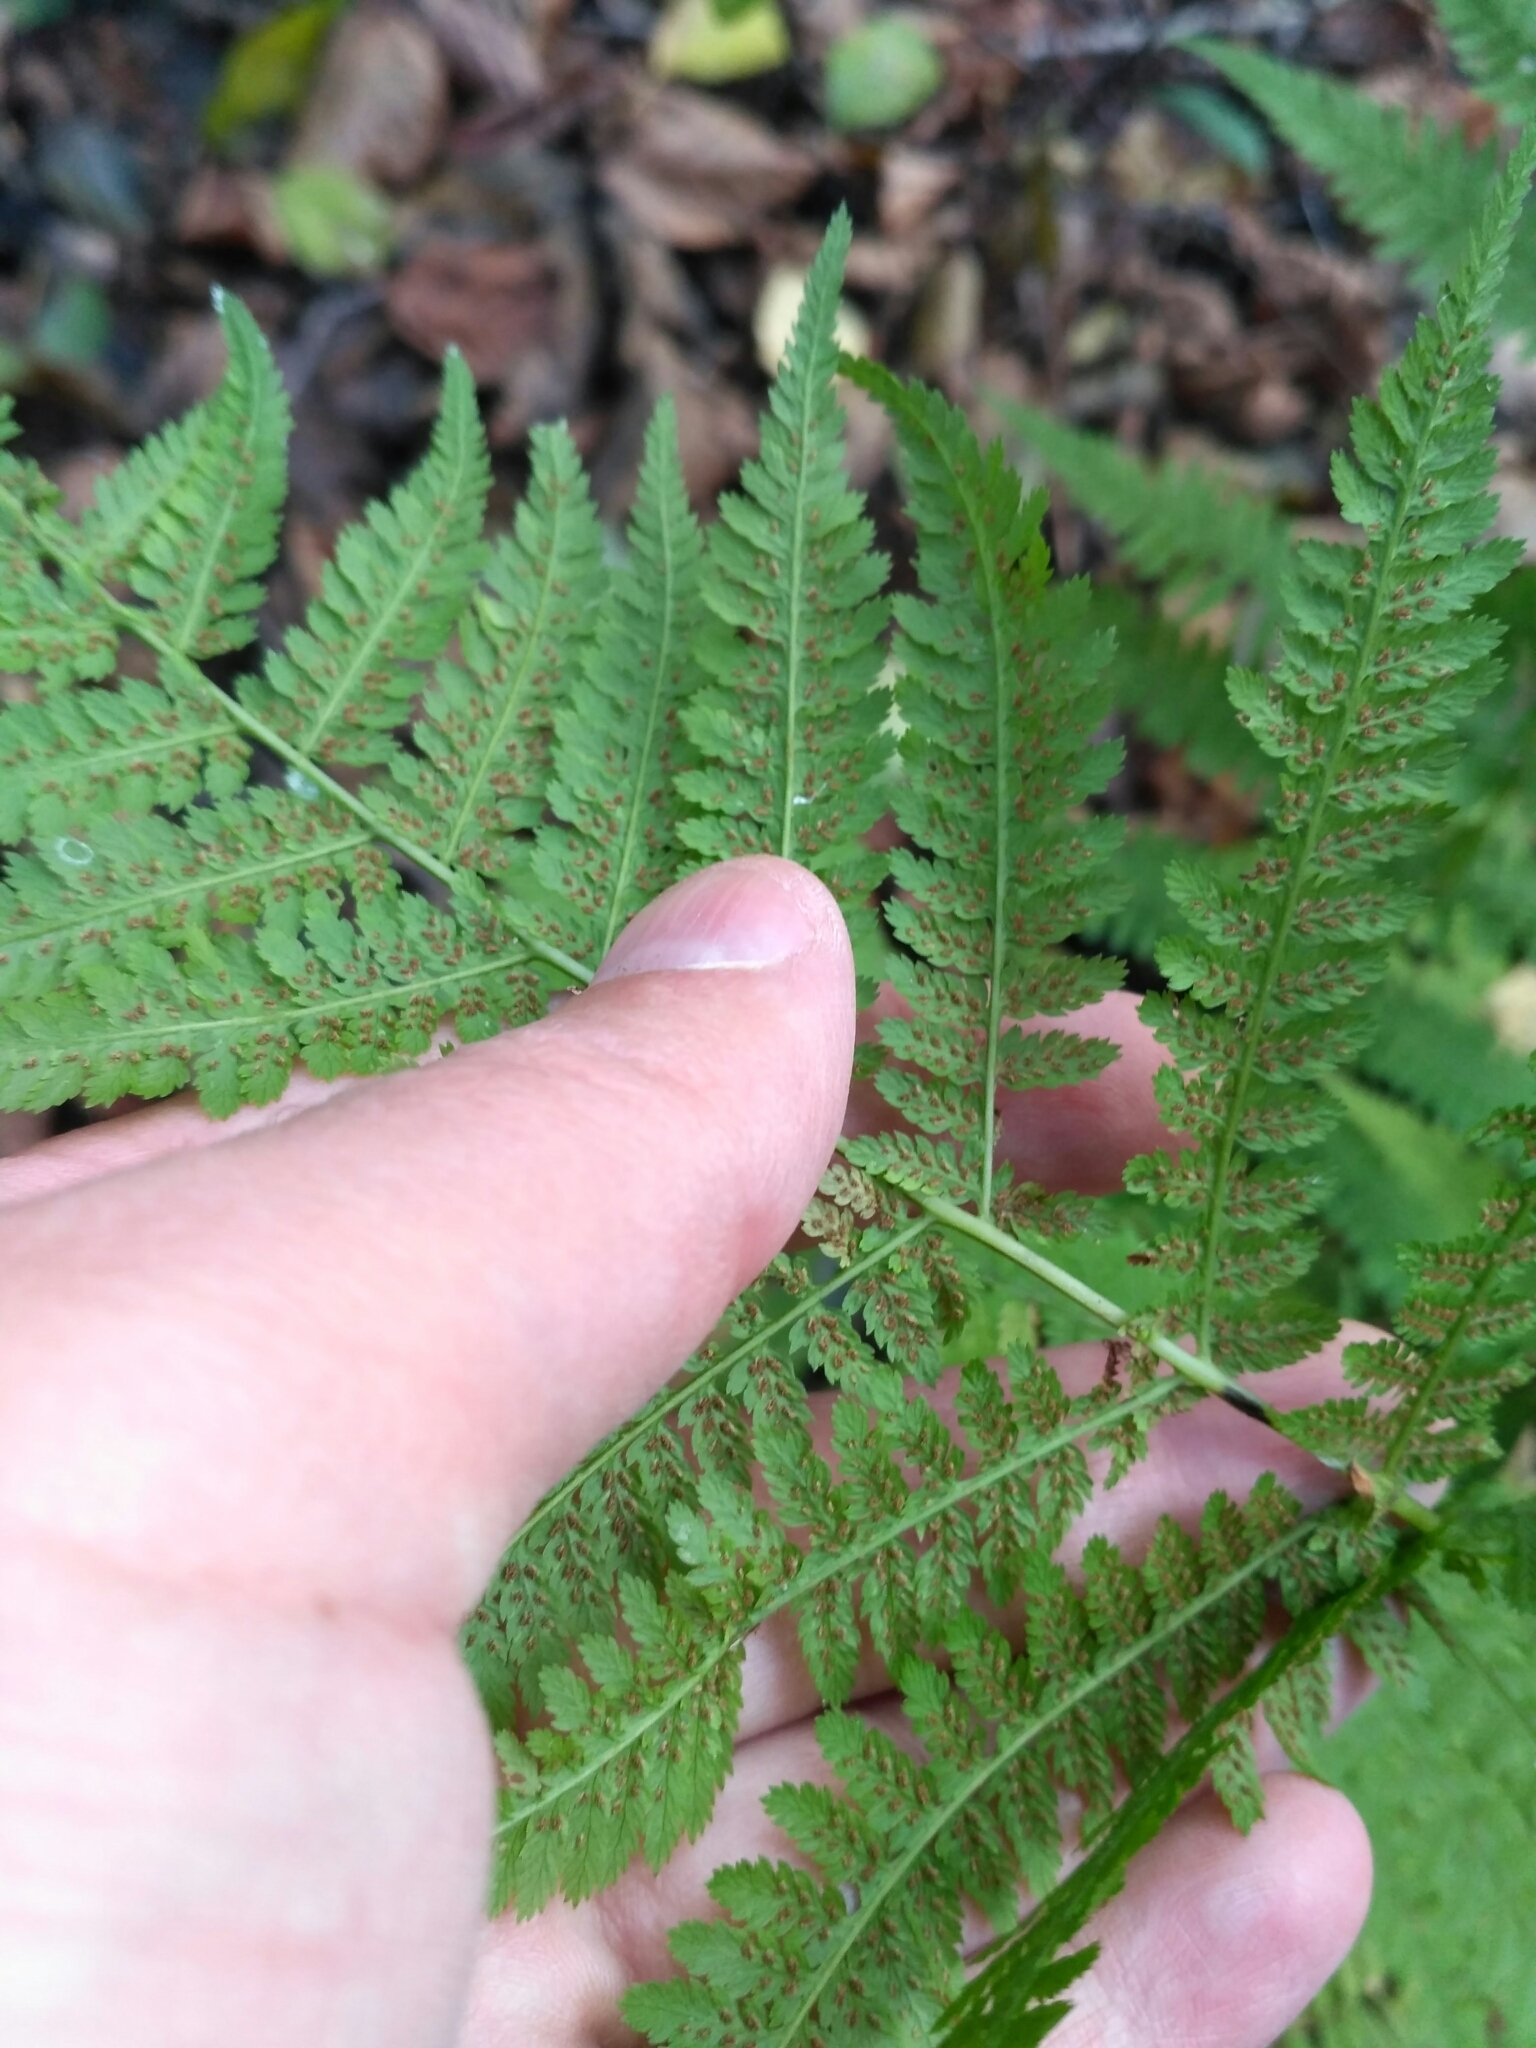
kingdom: Plantae
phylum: Tracheophyta
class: Polypodiopsida
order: Polypodiales
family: Athyriaceae
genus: Athyrium
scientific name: Athyrium filix-femina
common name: Lady fern
